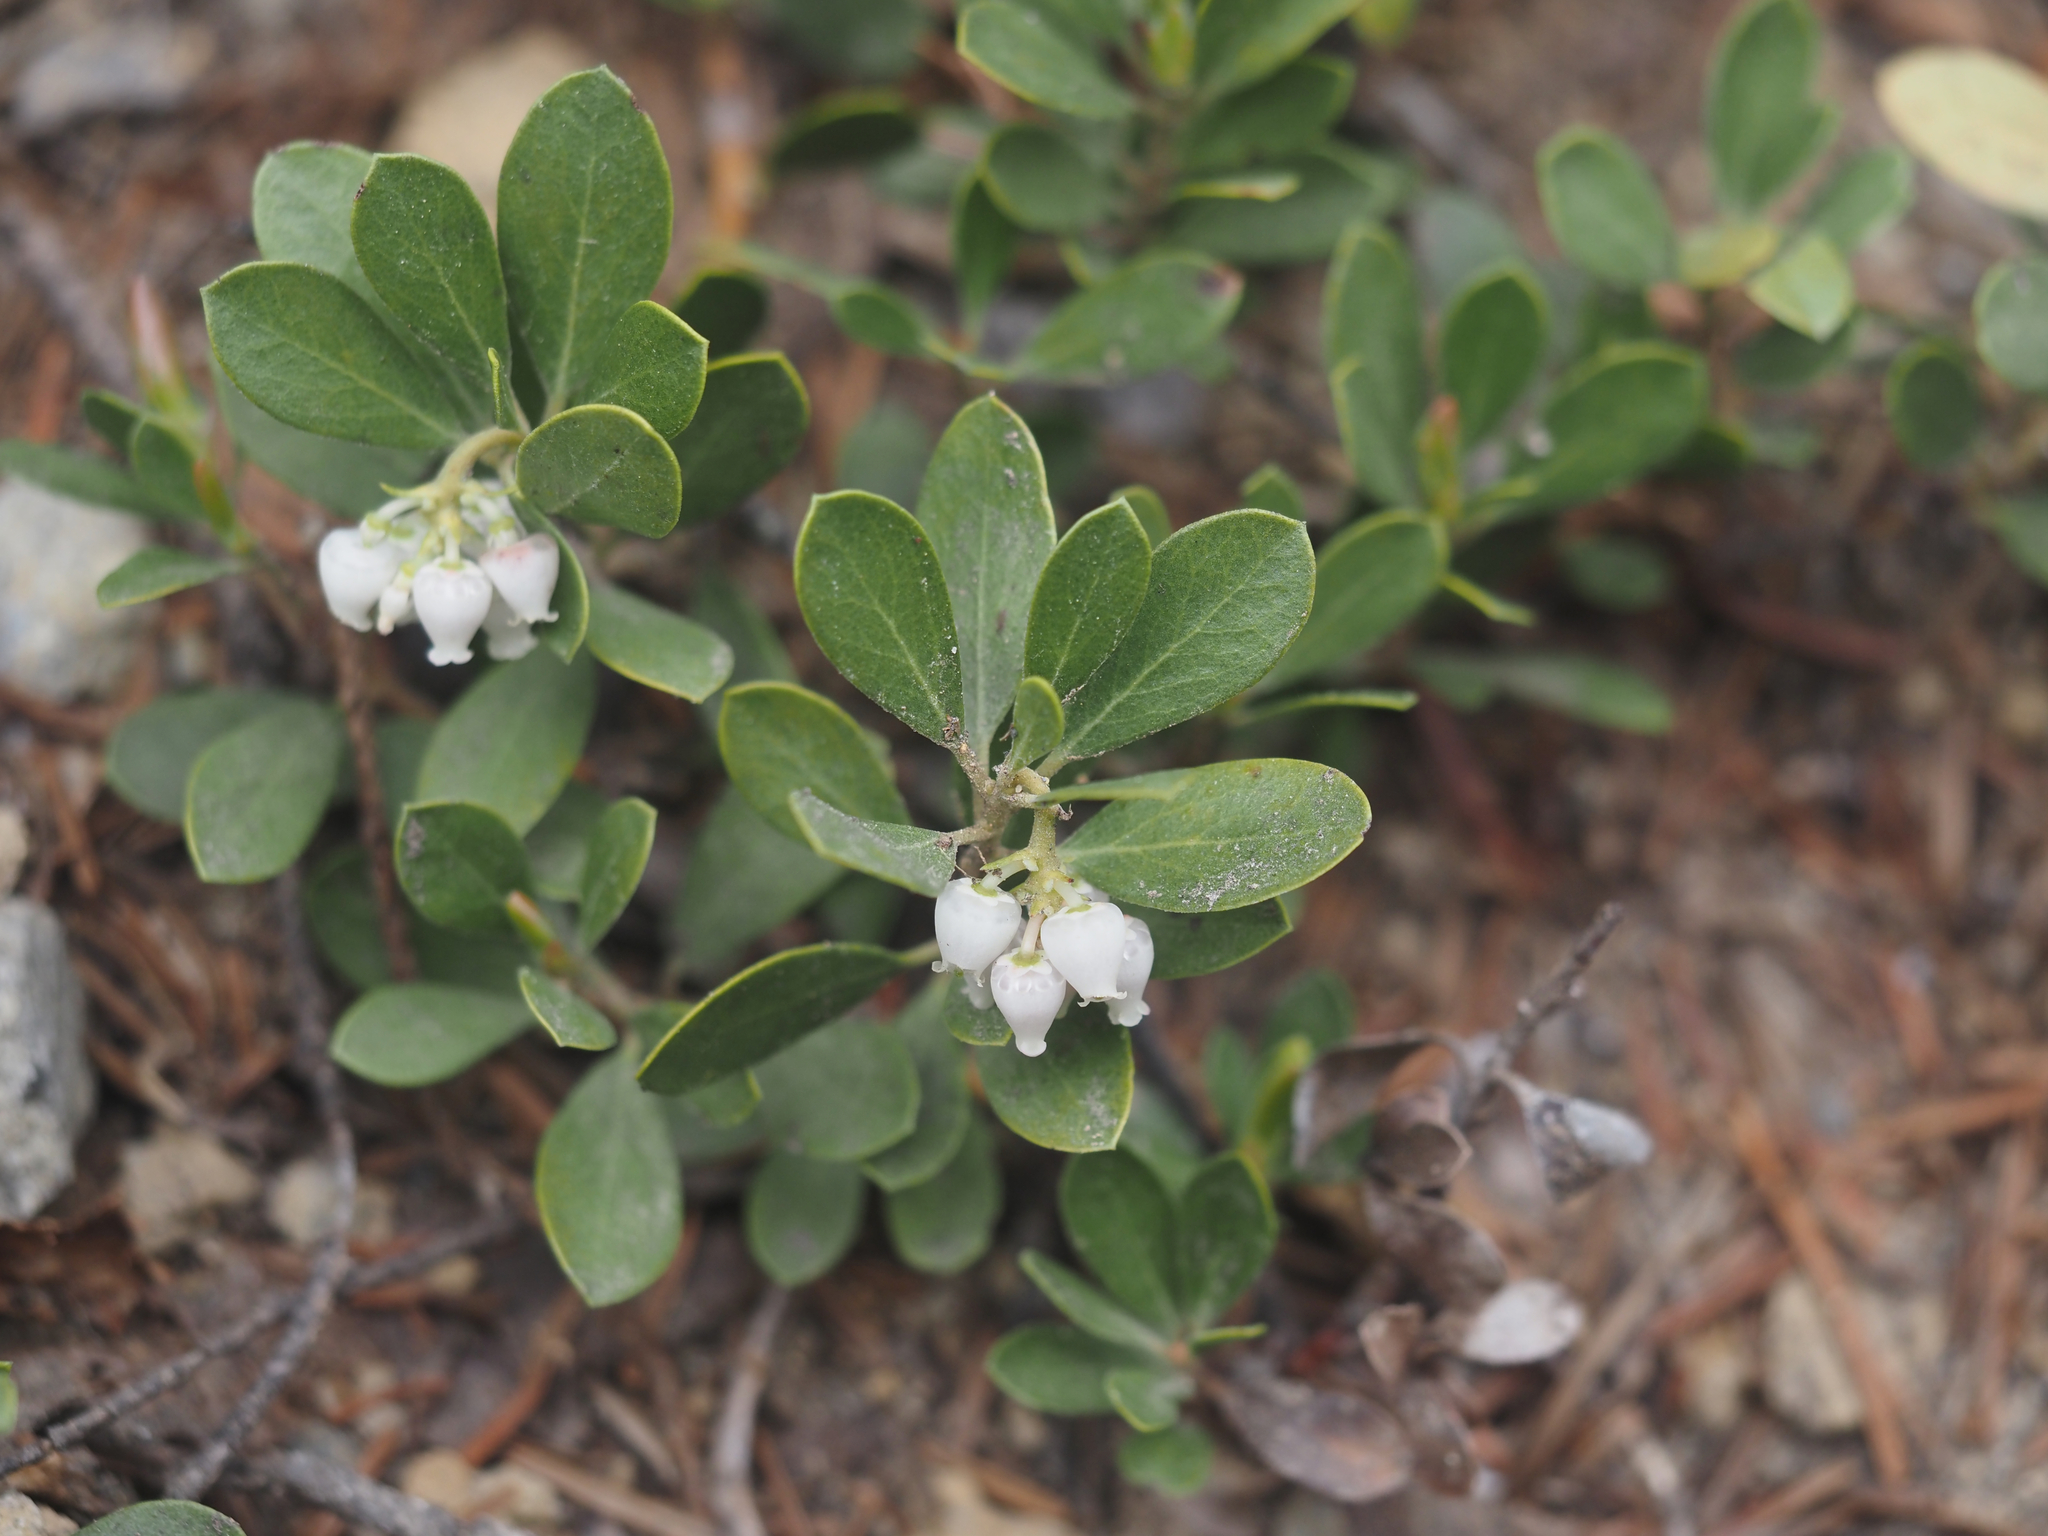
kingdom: Plantae
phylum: Tracheophyta
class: Magnoliopsida
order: Ericales
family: Ericaceae
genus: Arctostaphylos
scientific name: Arctostaphylos nevadensis
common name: Pinemat manzanita
